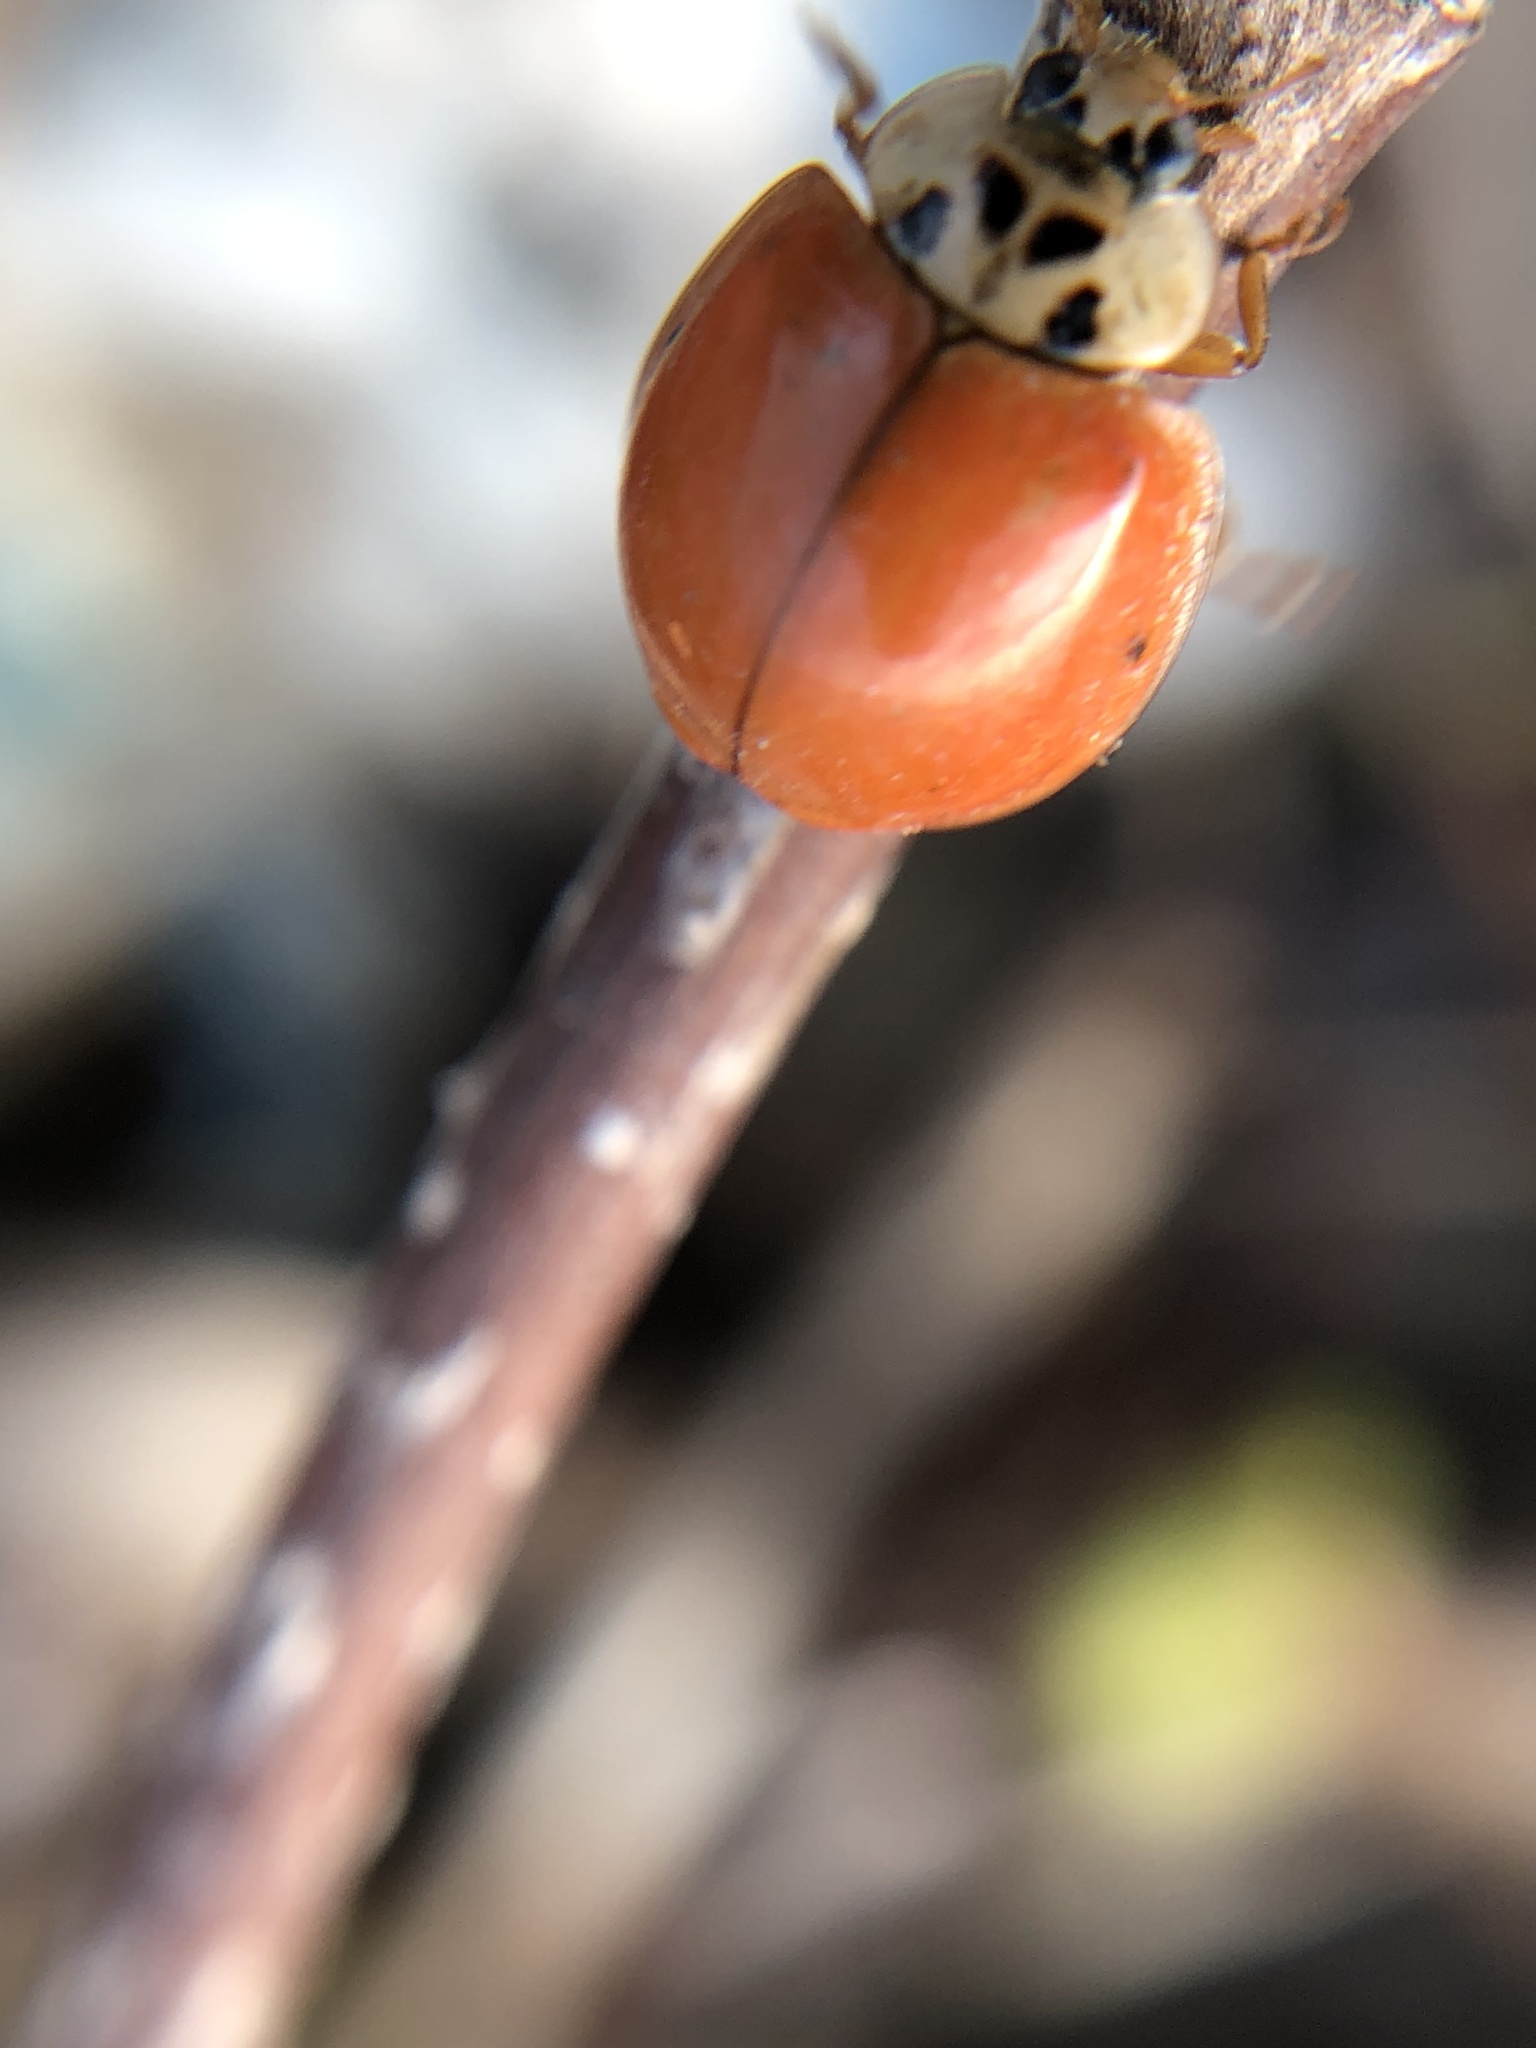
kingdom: Animalia
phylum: Arthropoda
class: Insecta
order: Coleoptera
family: Coccinellidae
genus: Harmonia
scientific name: Harmonia axyridis
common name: Harlequin ladybird
